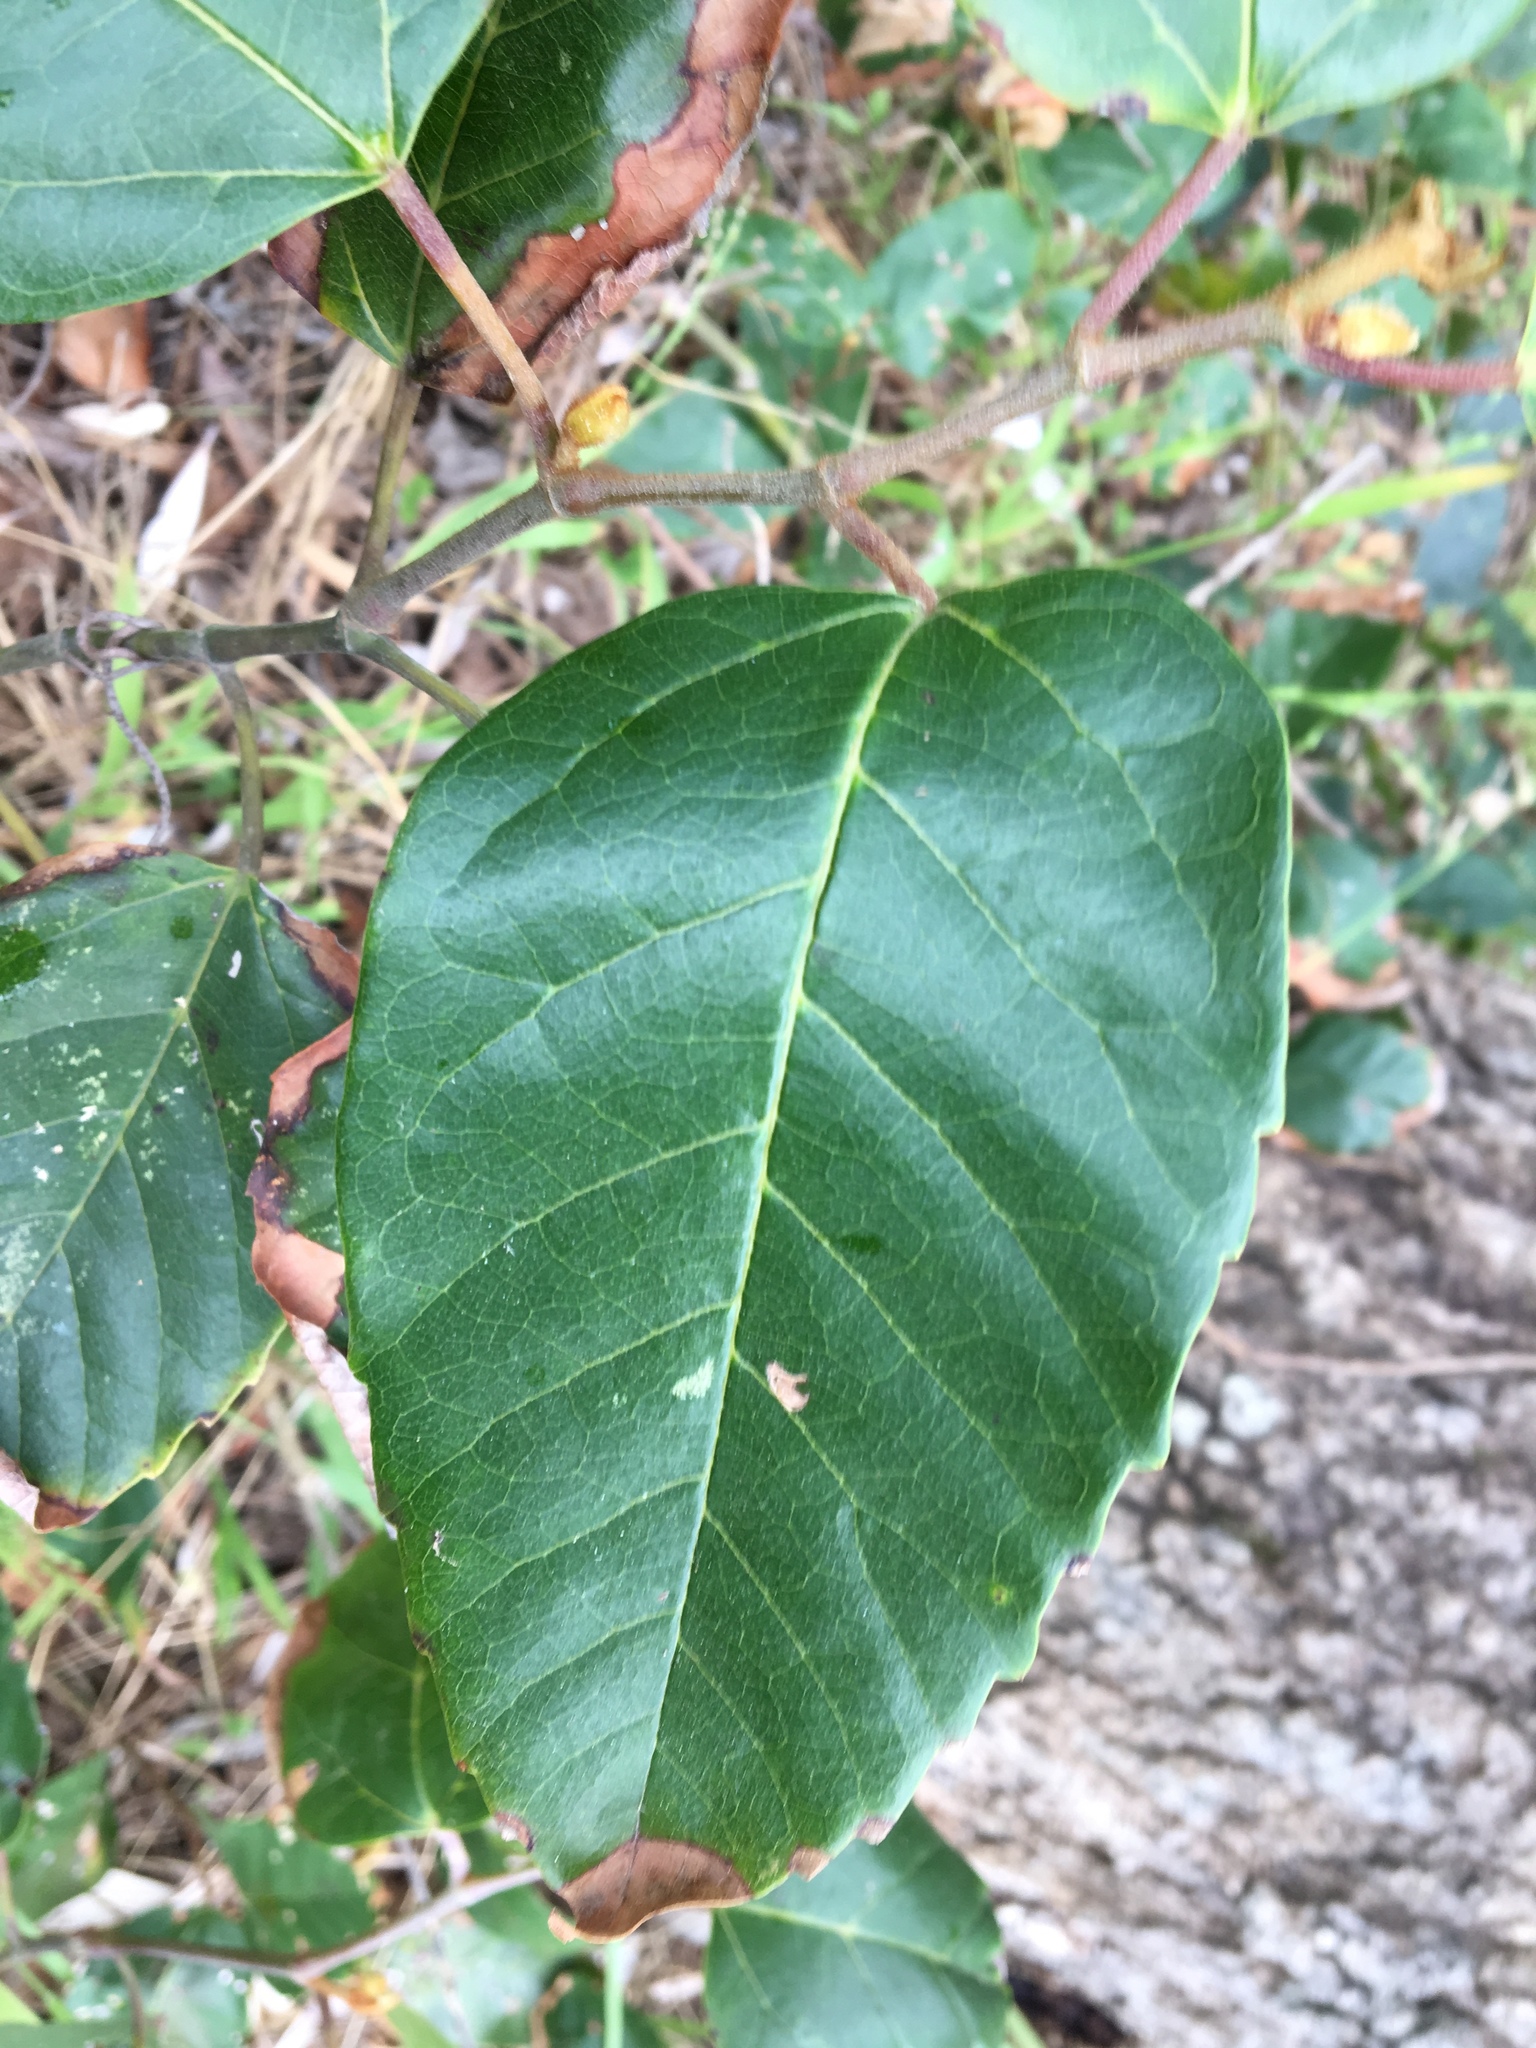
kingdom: Plantae
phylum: Tracheophyta
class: Magnoliopsida
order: Vitales
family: Vitaceae
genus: Cissus
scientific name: Cissus antarctica
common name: Kangaroo vine
